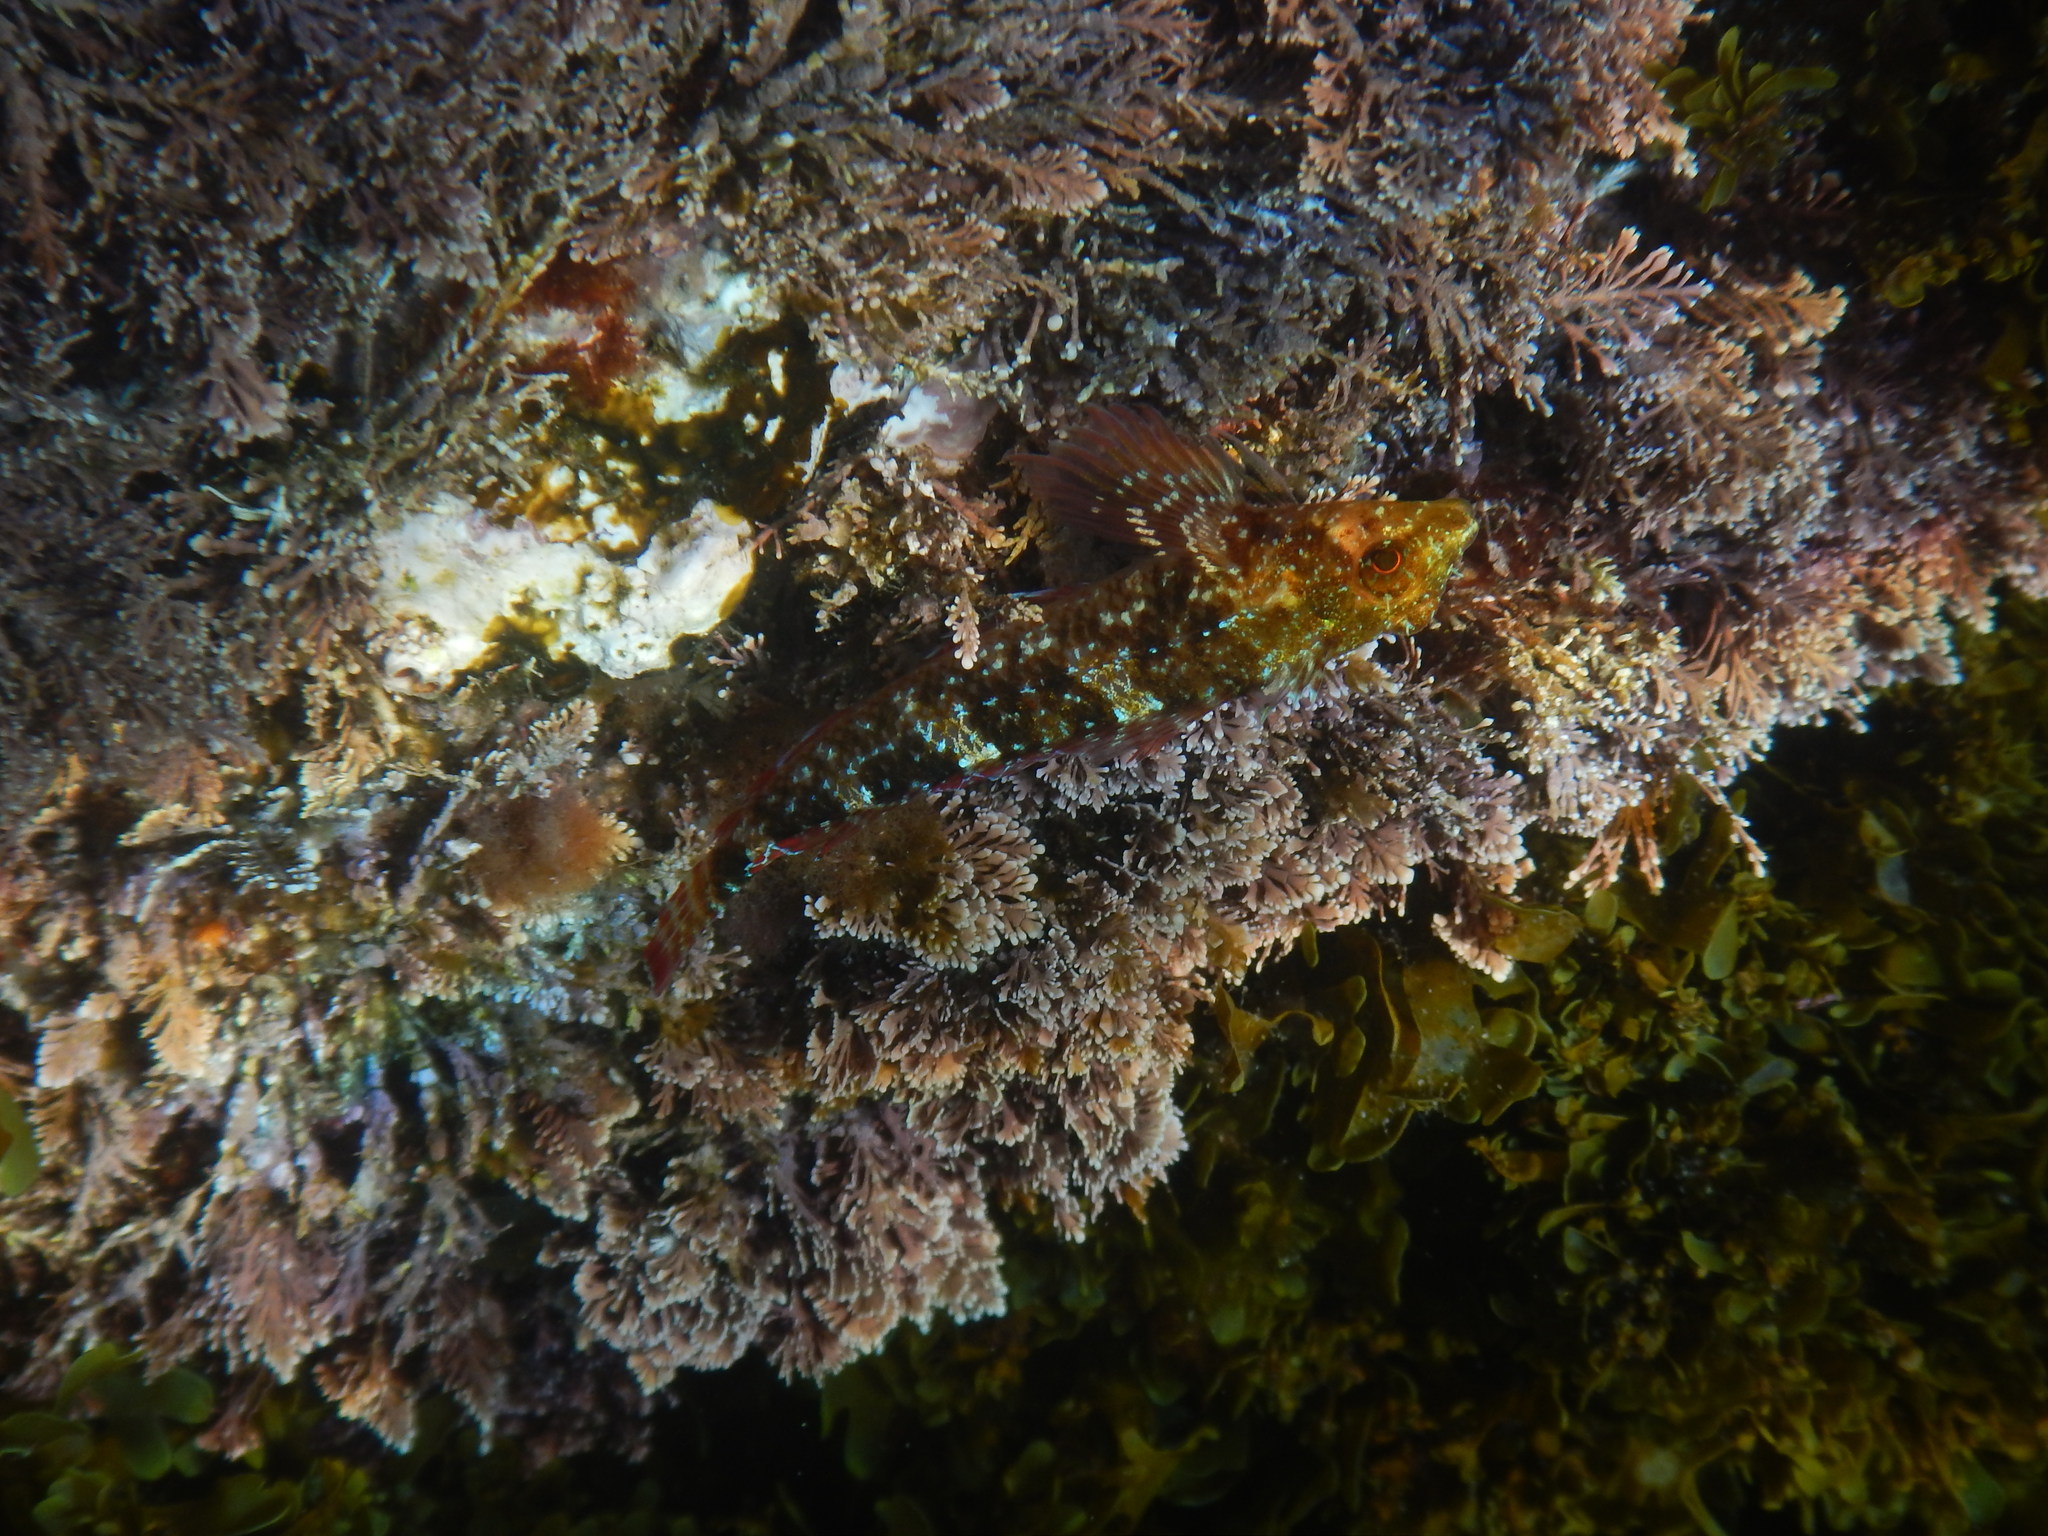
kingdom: Animalia
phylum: Chordata
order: Perciformes
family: Tripterygiidae
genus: Tripterygion
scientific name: Tripterygion tripteronotum
